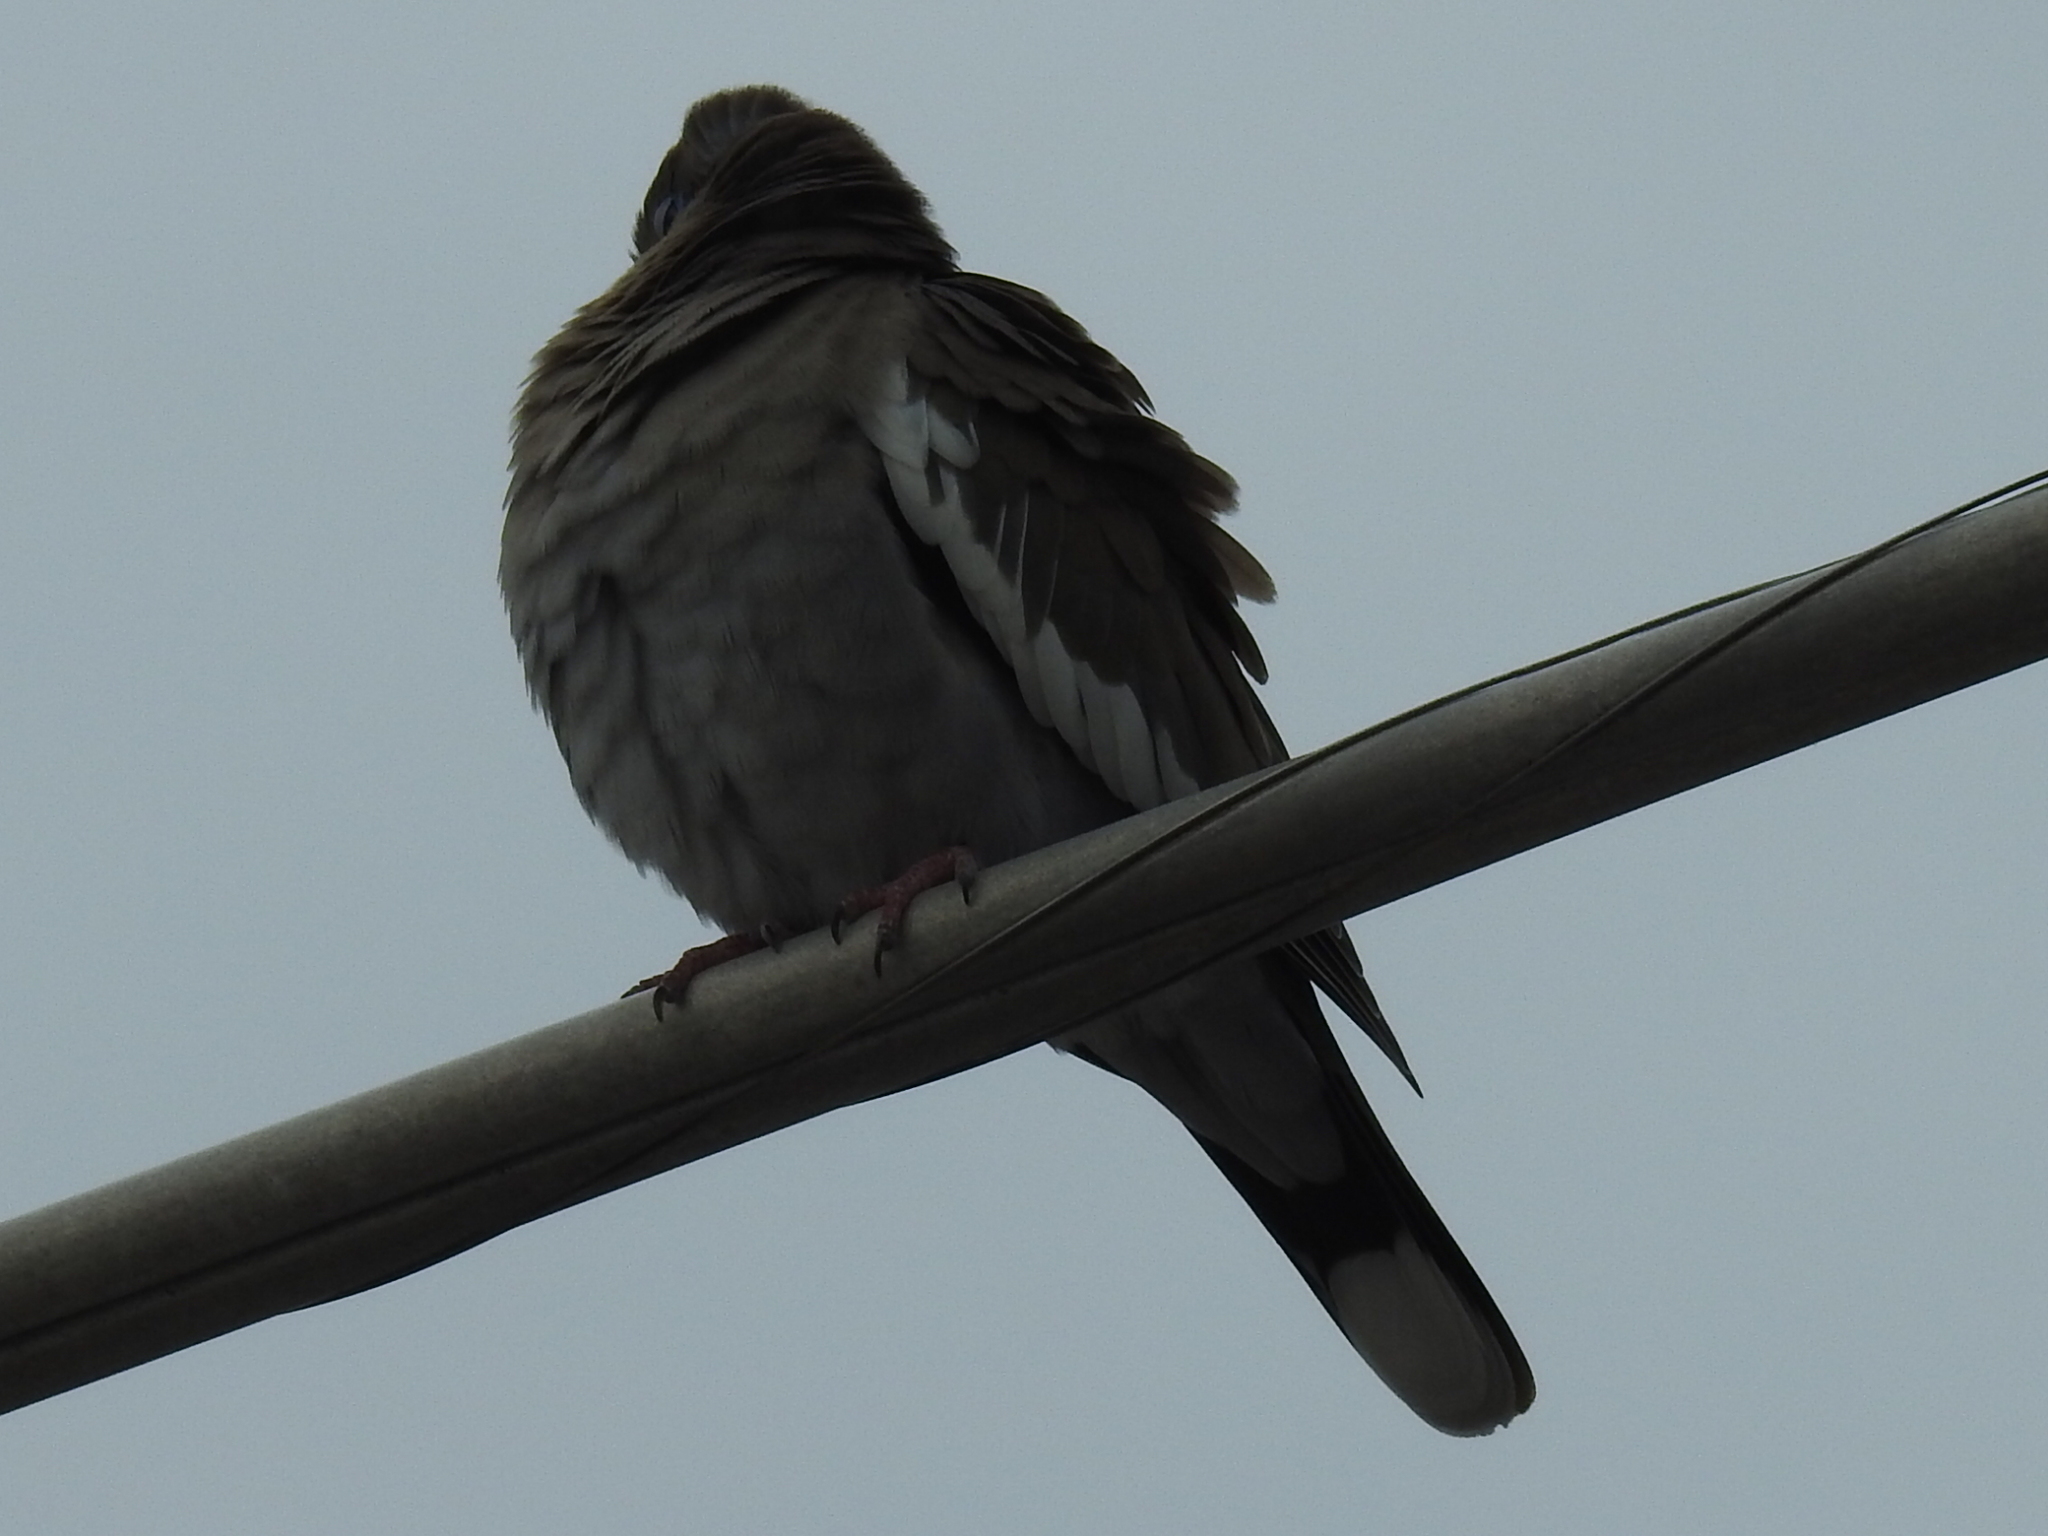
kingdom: Animalia
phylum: Chordata
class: Aves
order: Columbiformes
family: Columbidae
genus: Zenaida
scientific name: Zenaida asiatica
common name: White-winged dove
